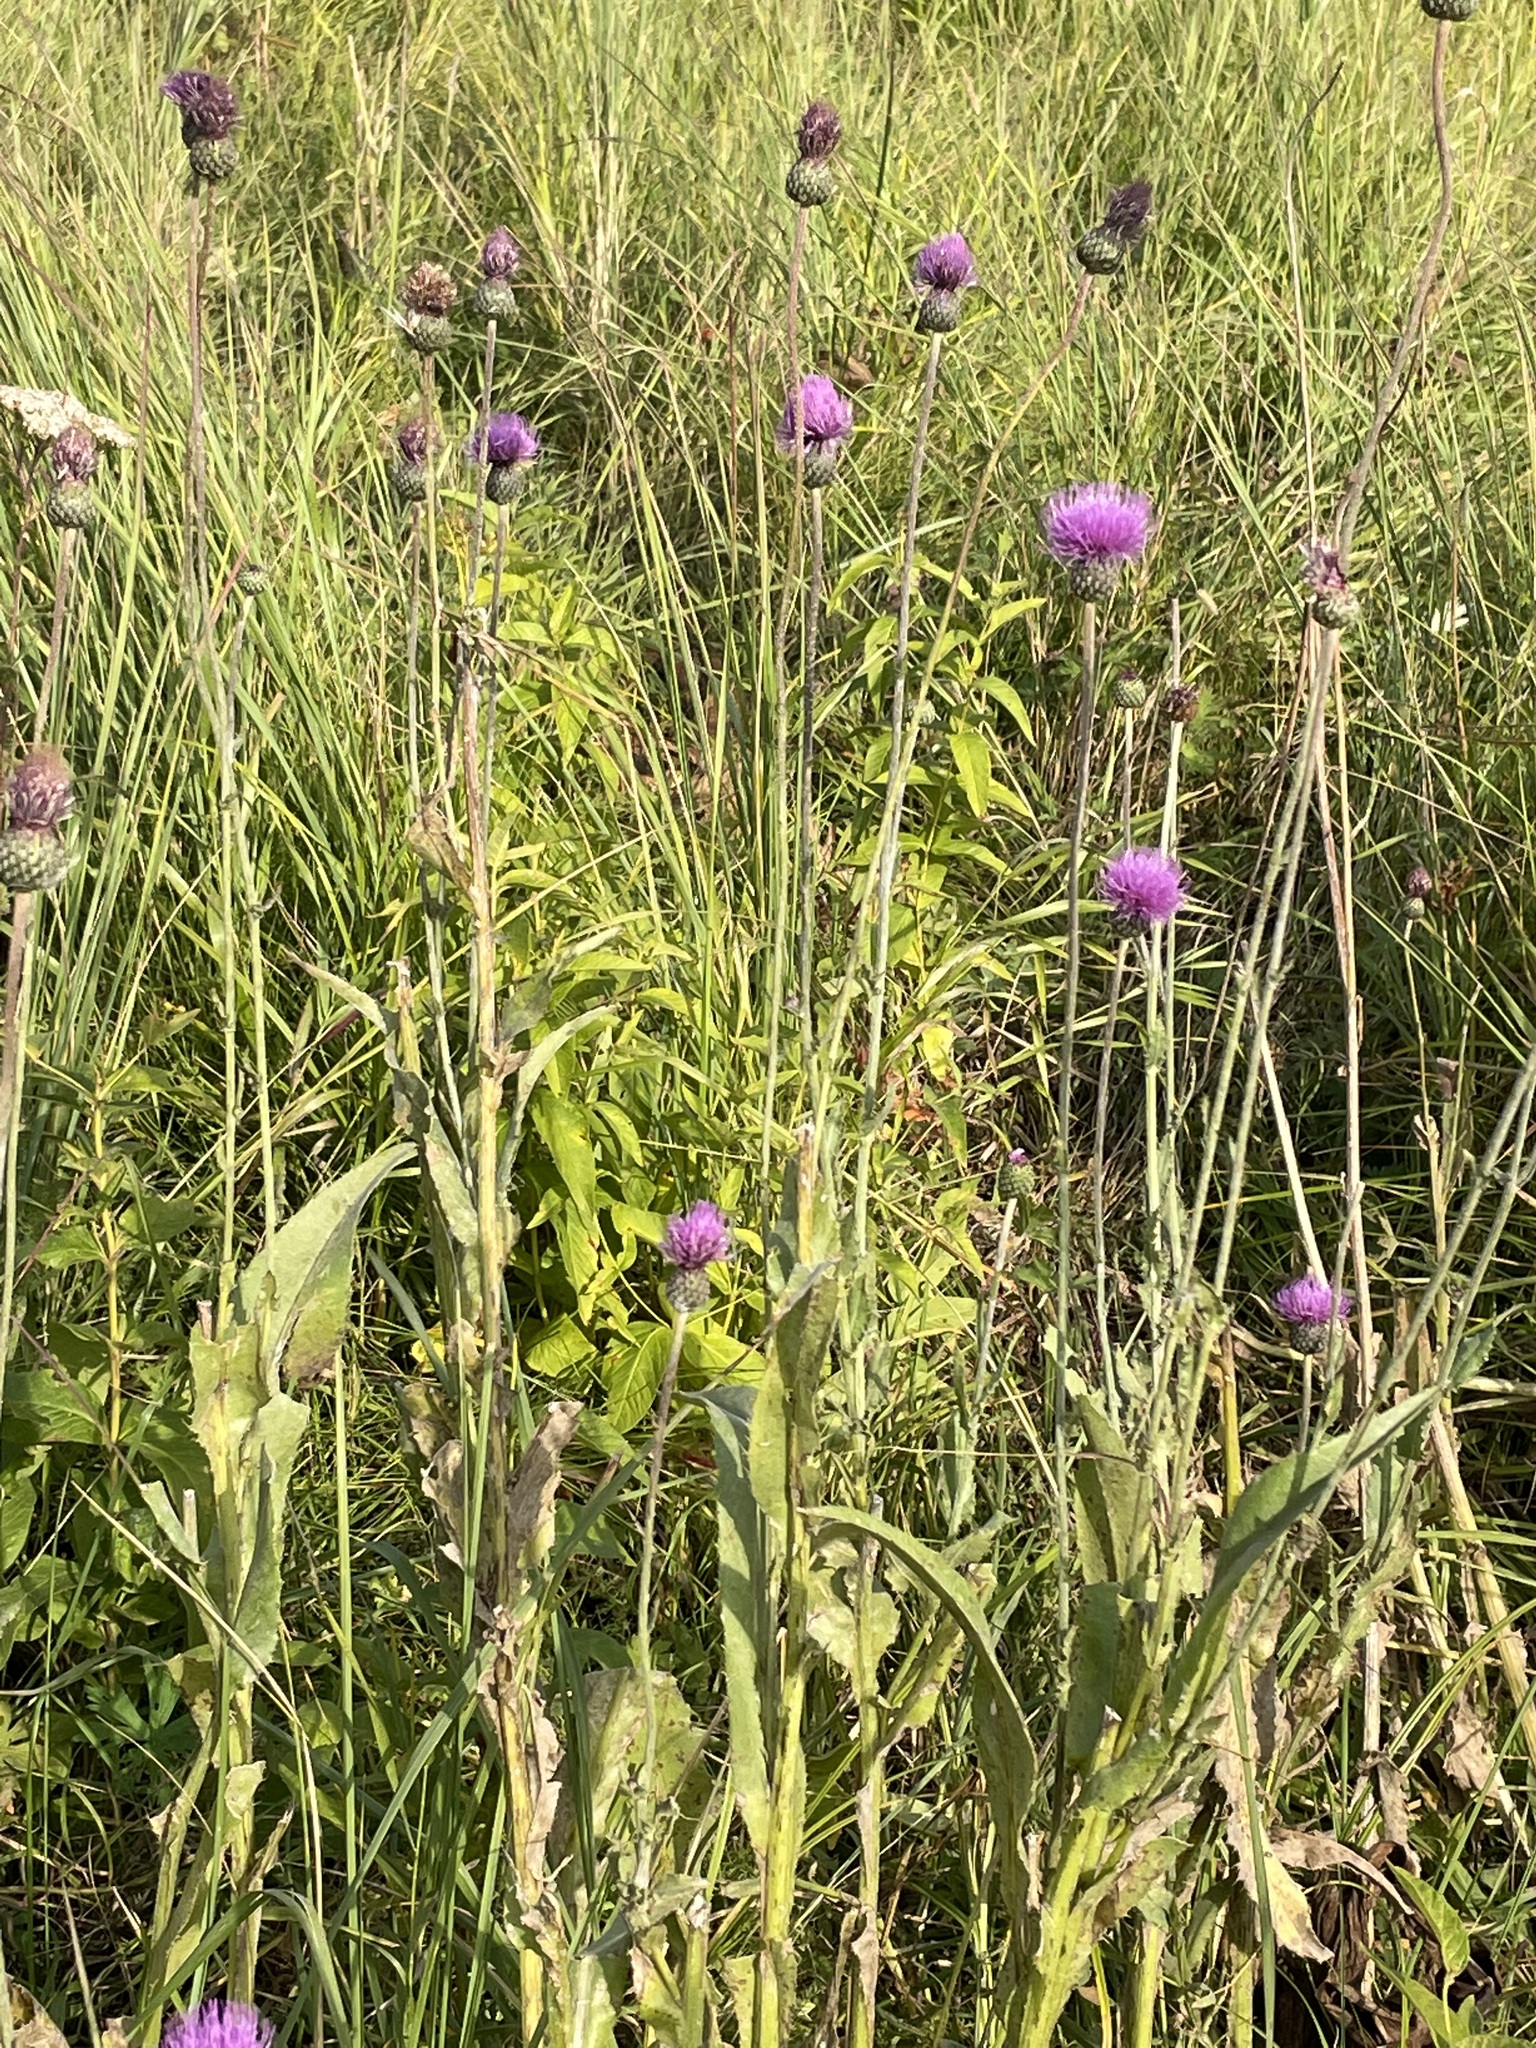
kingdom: Plantae
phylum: Tracheophyta
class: Magnoliopsida
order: Asterales
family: Asteraceae
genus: Cirsium
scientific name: Cirsium canum
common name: Queen anne's thistle
